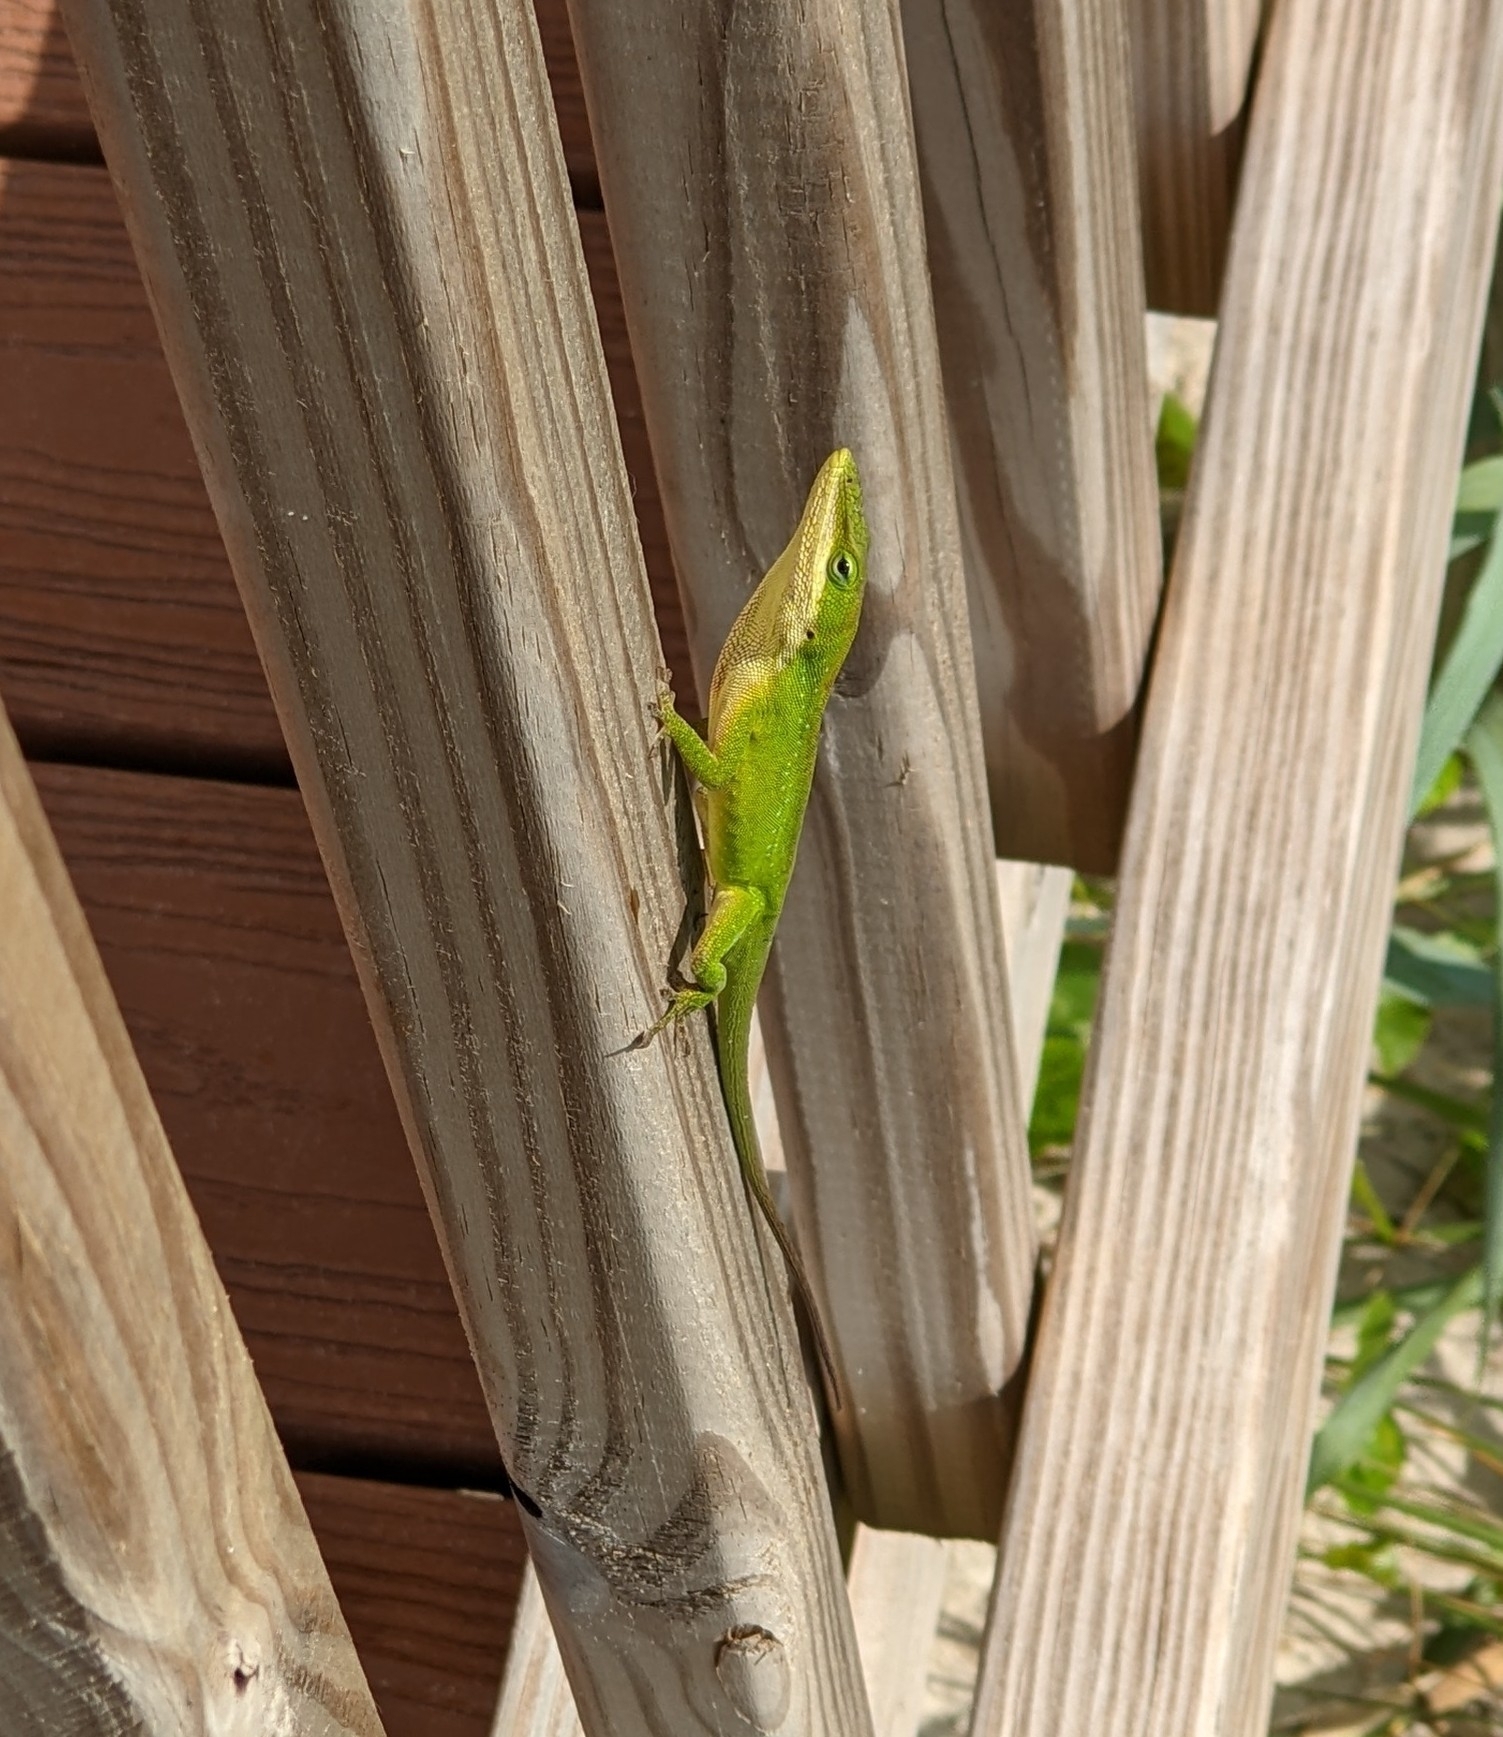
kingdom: Animalia
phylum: Chordata
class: Squamata
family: Dactyloidae
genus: Anolis
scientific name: Anolis carolinensis
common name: Green anole
